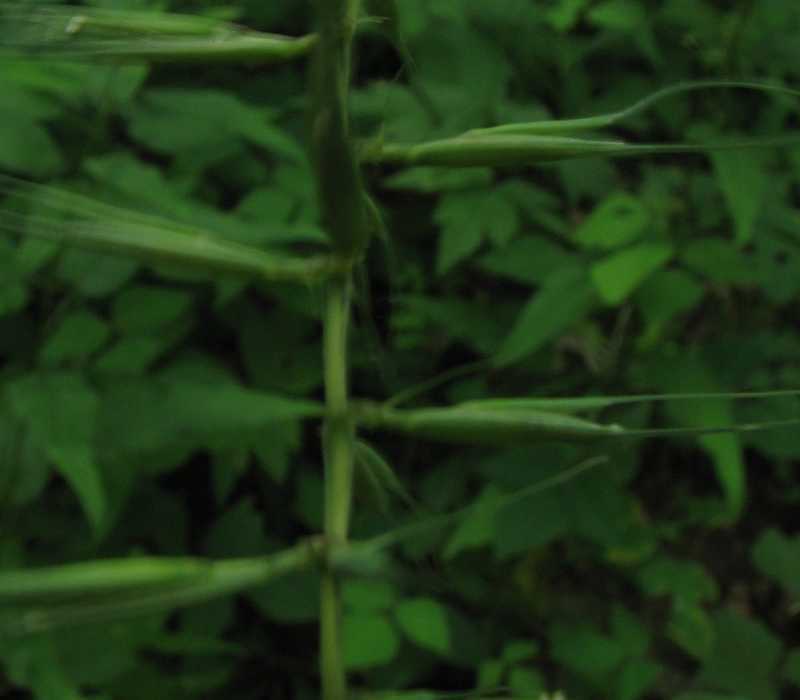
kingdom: Plantae
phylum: Tracheophyta
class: Liliopsida
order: Poales
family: Poaceae
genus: Elymus
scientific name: Elymus hystrix
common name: Bottlebrush grass
